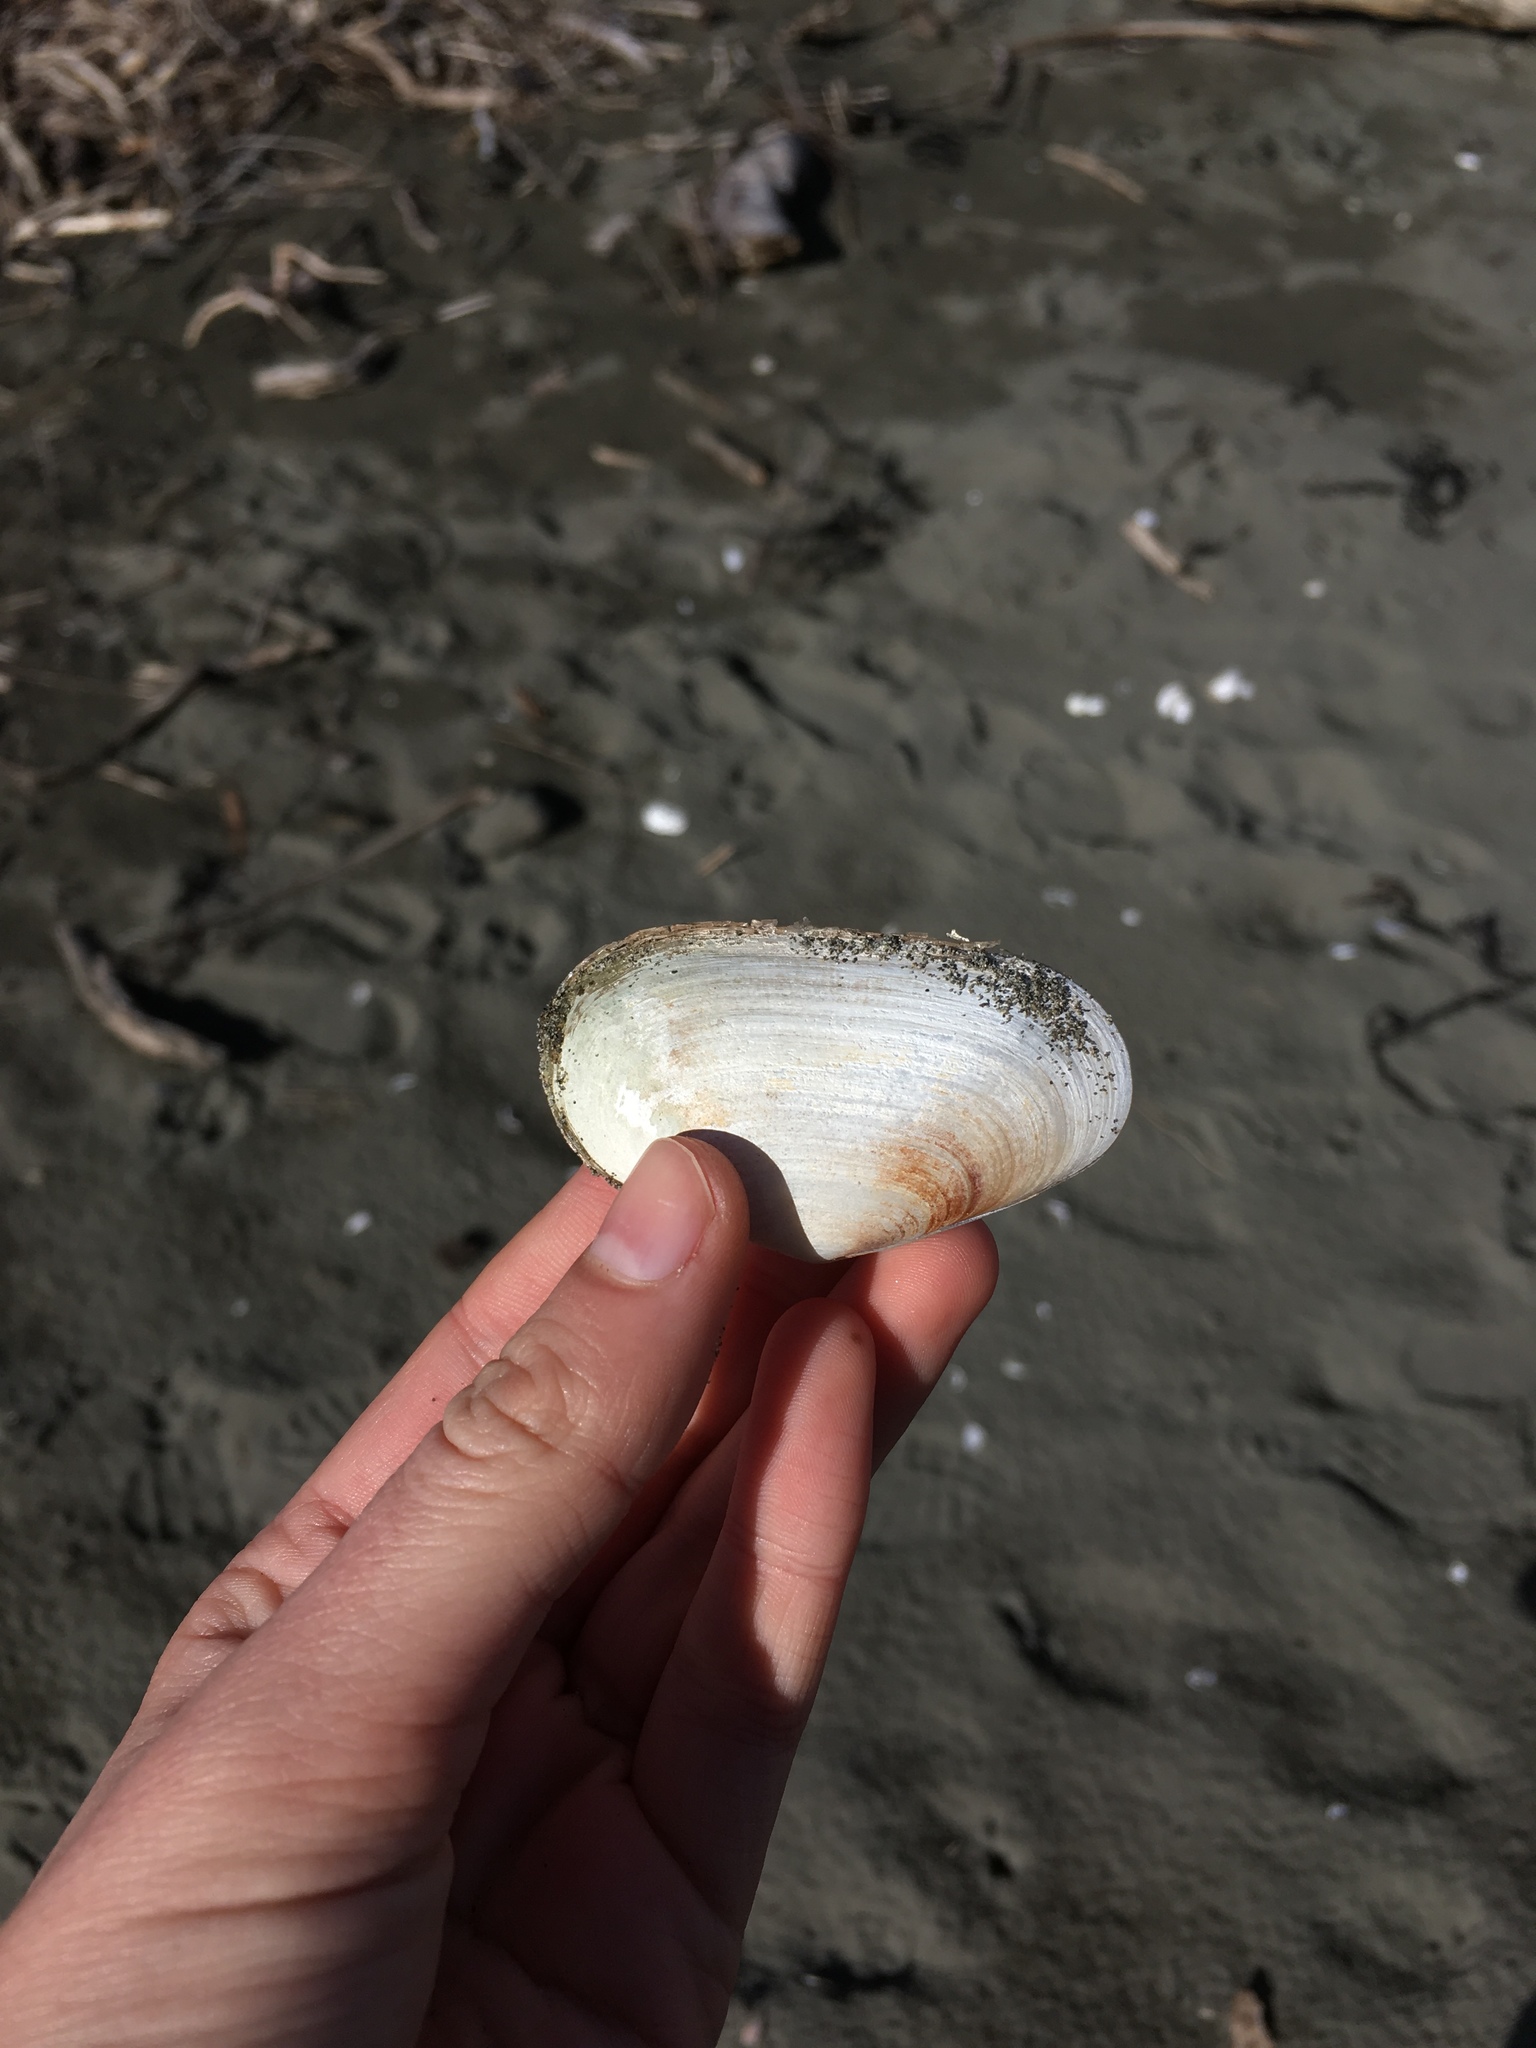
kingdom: Animalia
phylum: Mollusca
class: Bivalvia
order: Venerida
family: Mesodesmatidae
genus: Paphies
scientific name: Paphies australis
